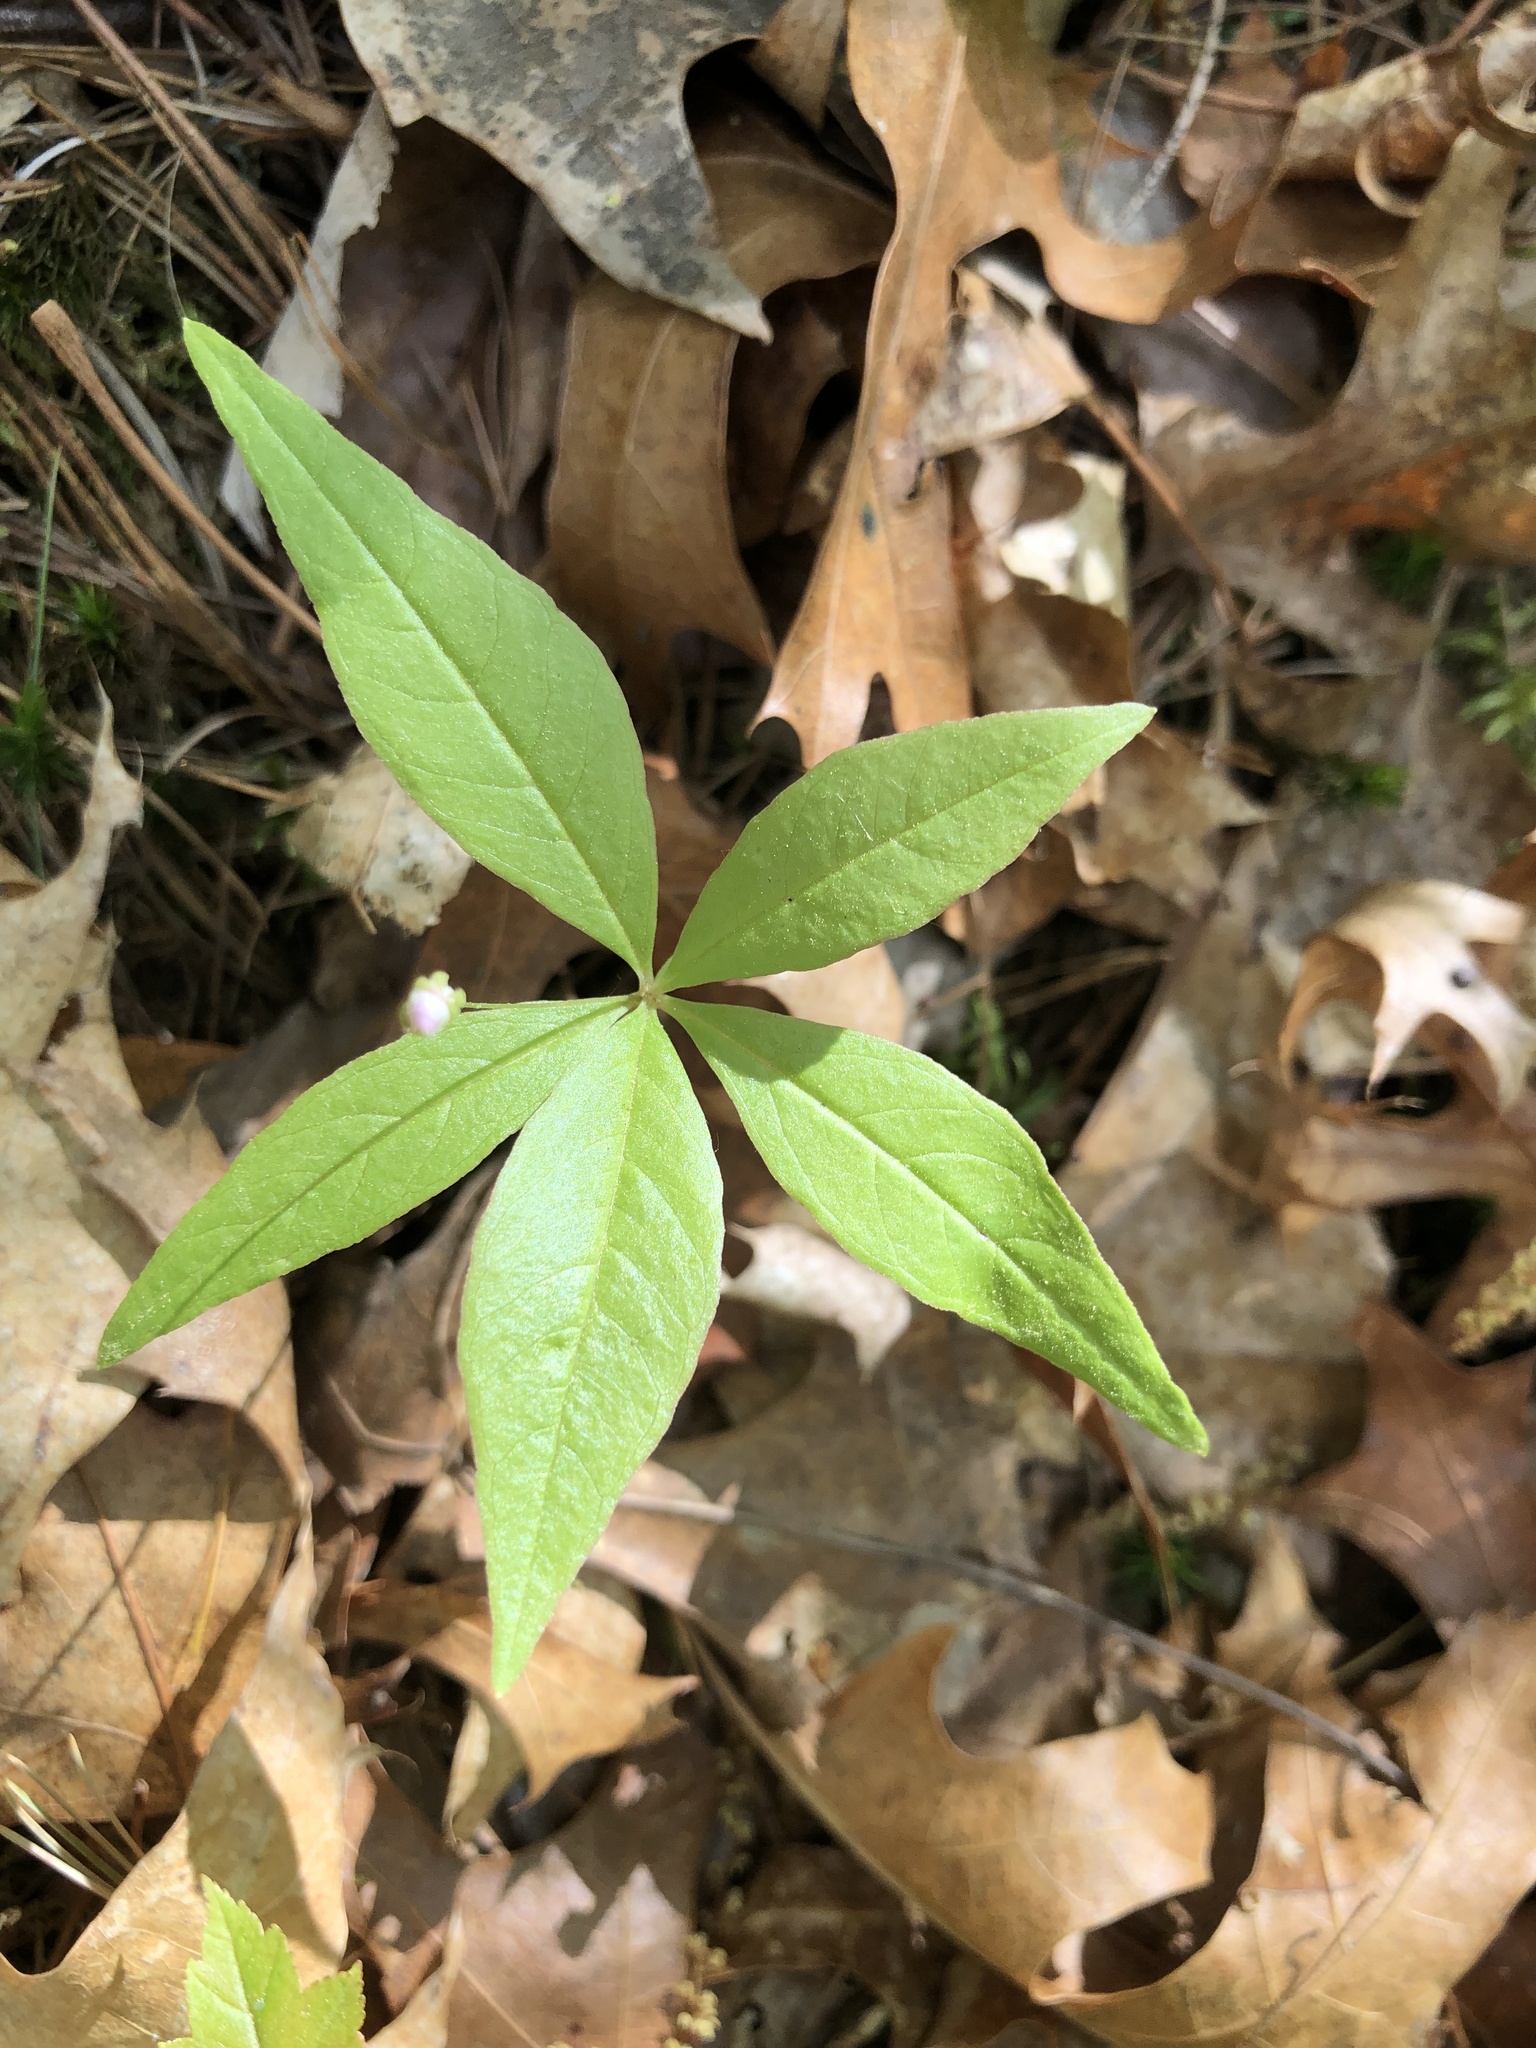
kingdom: Plantae
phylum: Tracheophyta
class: Magnoliopsida
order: Ericales
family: Primulaceae
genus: Lysimachia
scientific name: Lysimachia borealis
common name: American starflower
